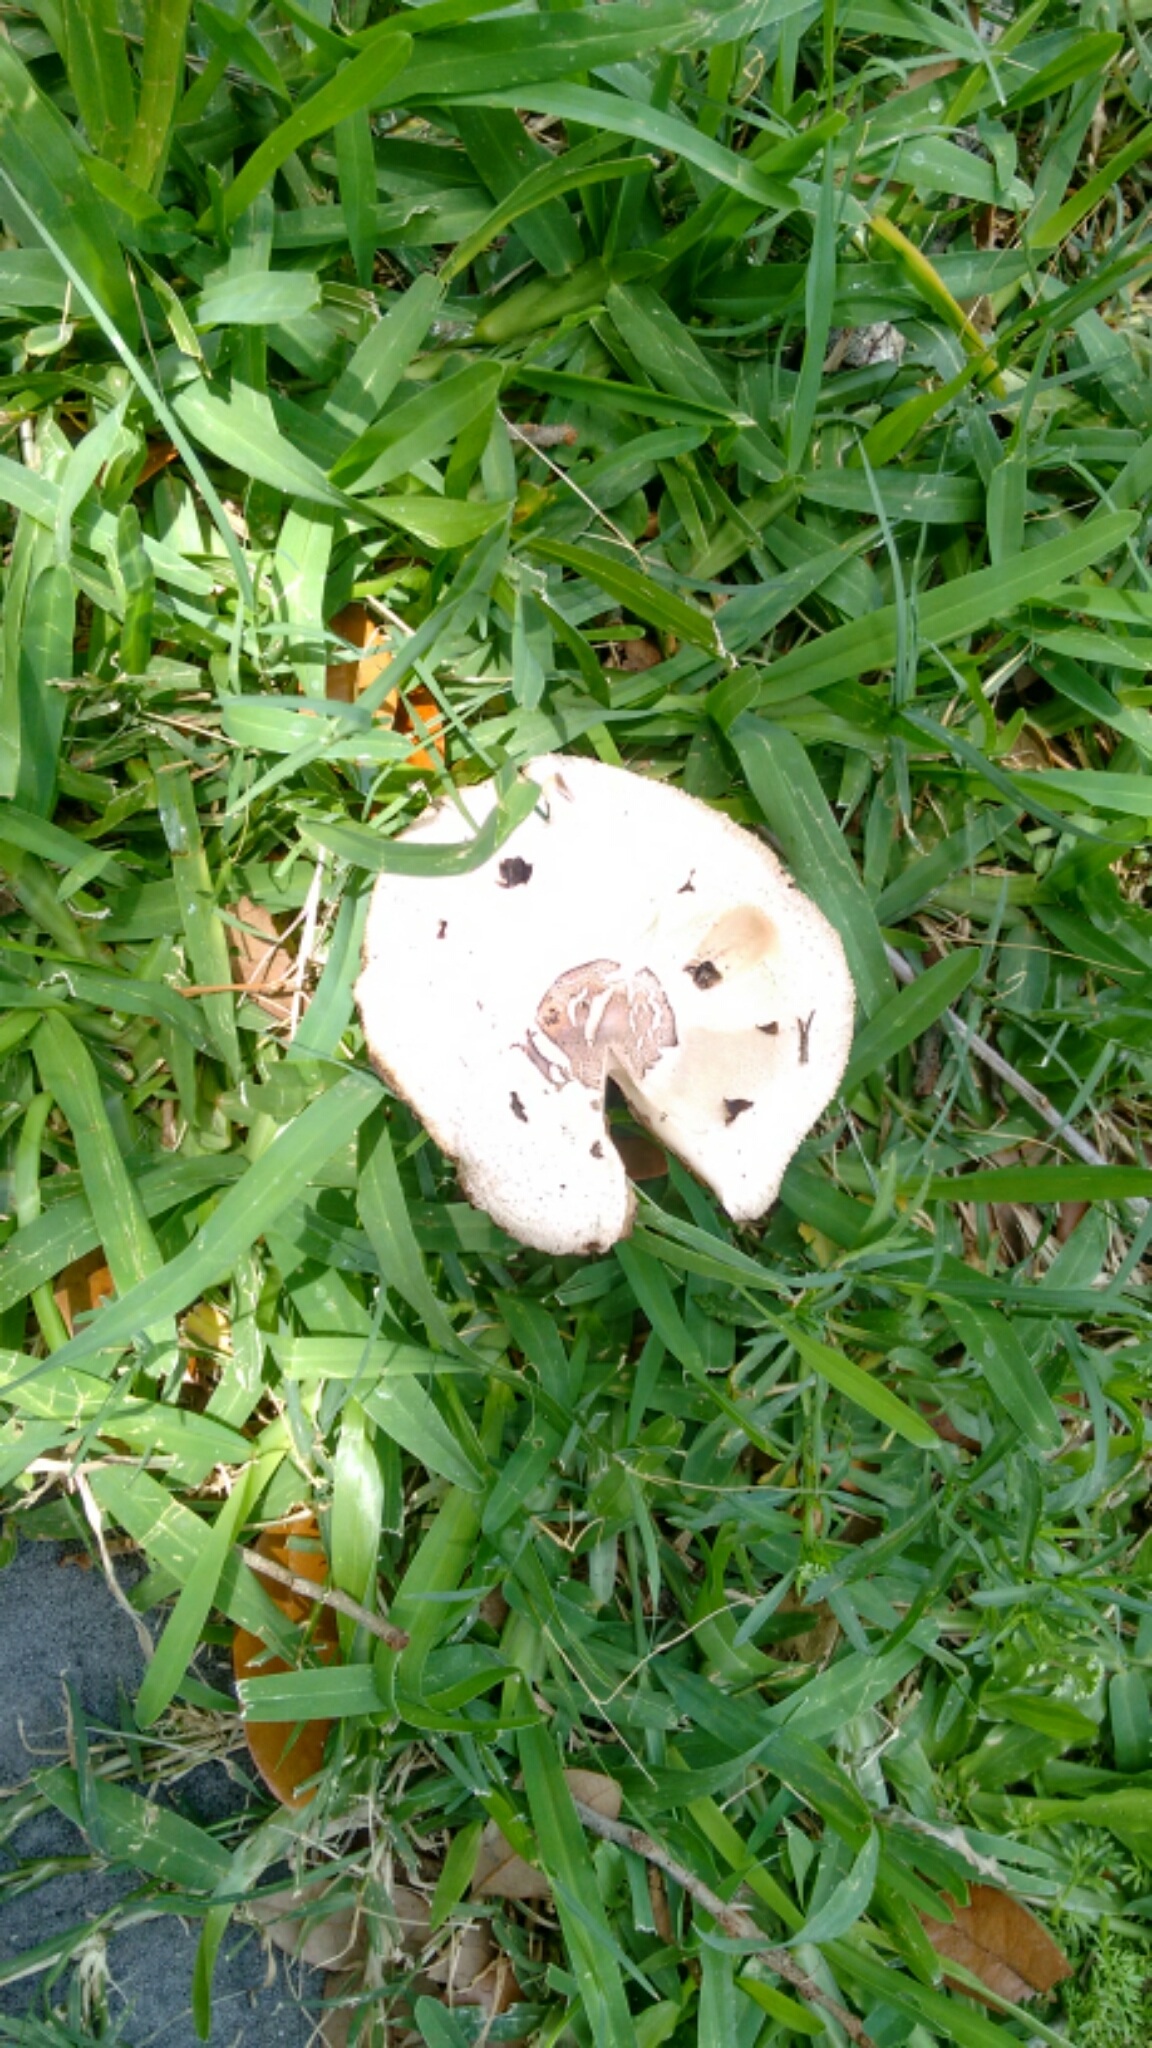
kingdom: Fungi
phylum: Basidiomycota
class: Agaricomycetes
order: Agaricales
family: Agaricaceae
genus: Chlorophyllum
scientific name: Chlorophyllum molybdites
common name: False parasol
